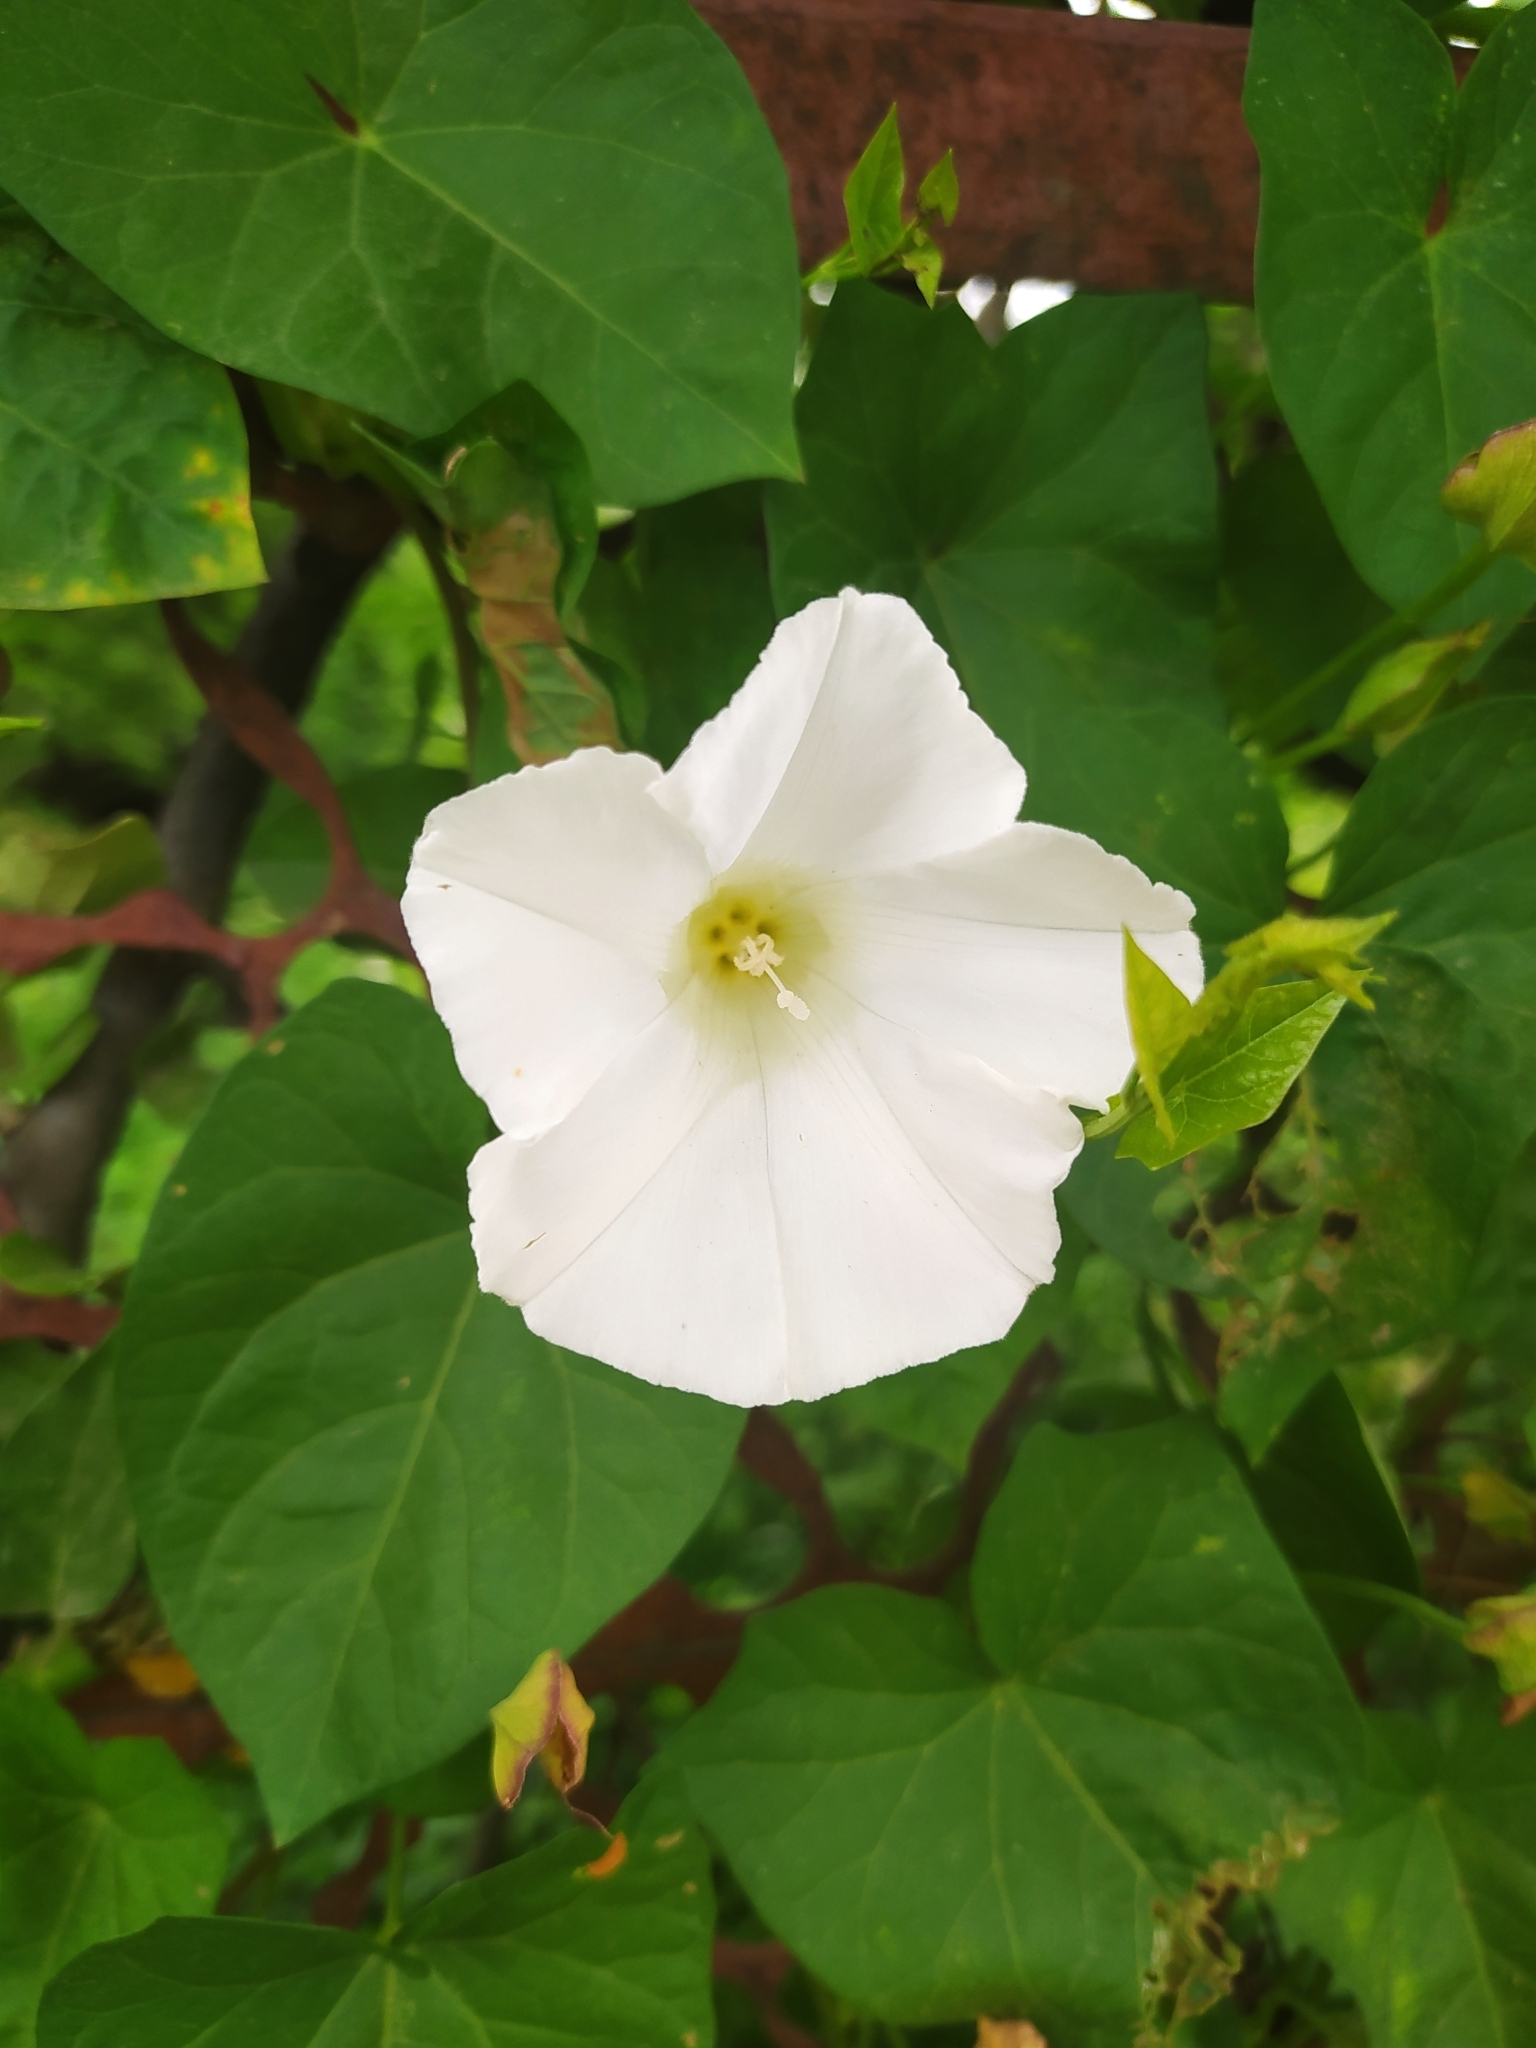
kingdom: Plantae
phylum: Tracheophyta
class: Magnoliopsida
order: Solanales
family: Convolvulaceae
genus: Calystegia
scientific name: Calystegia sepium
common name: Hedge bindweed
